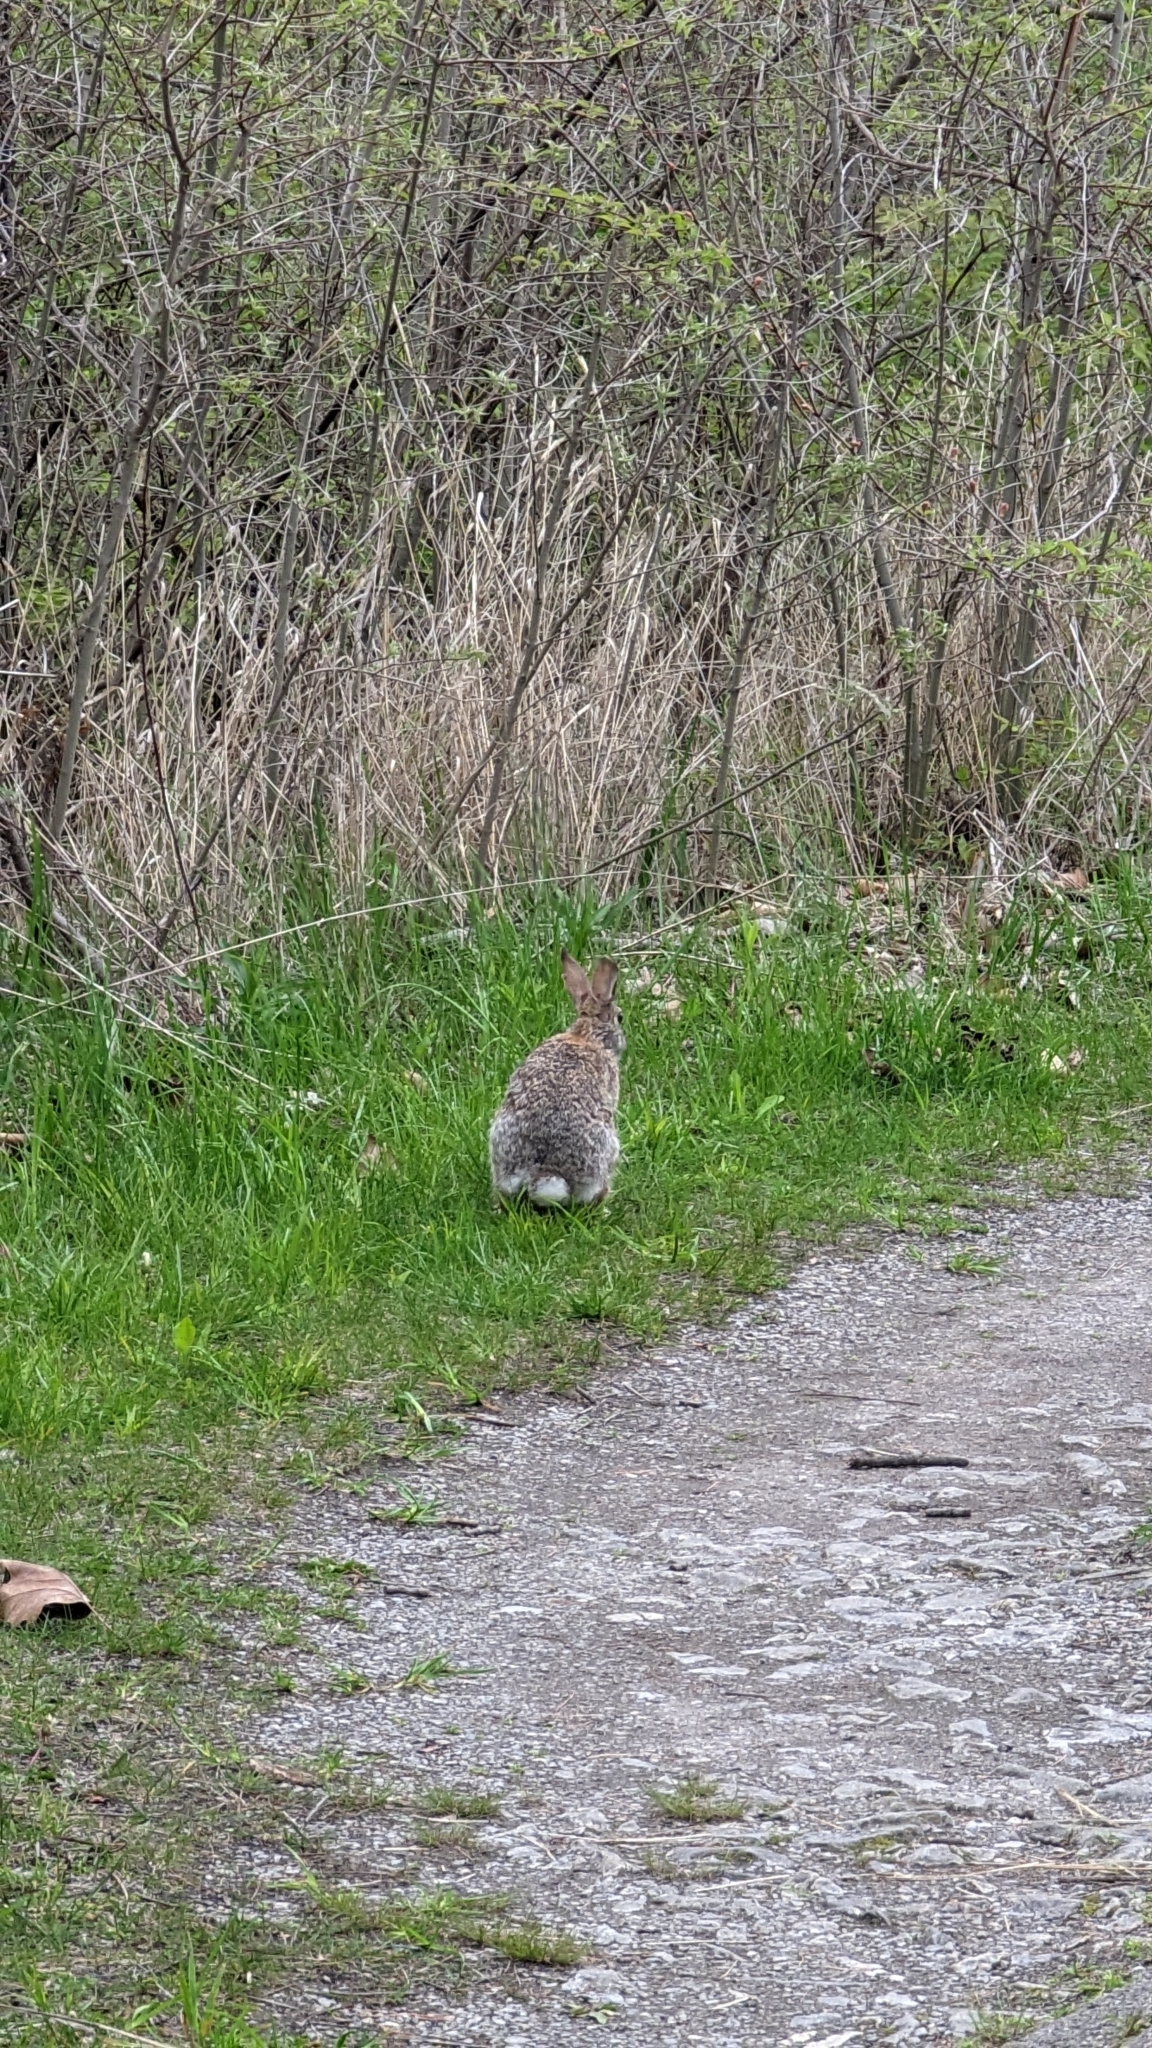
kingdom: Animalia
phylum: Chordata
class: Mammalia
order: Lagomorpha
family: Leporidae
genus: Sylvilagus
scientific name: Sylvilagus floridanus
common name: Eastern cottontail
